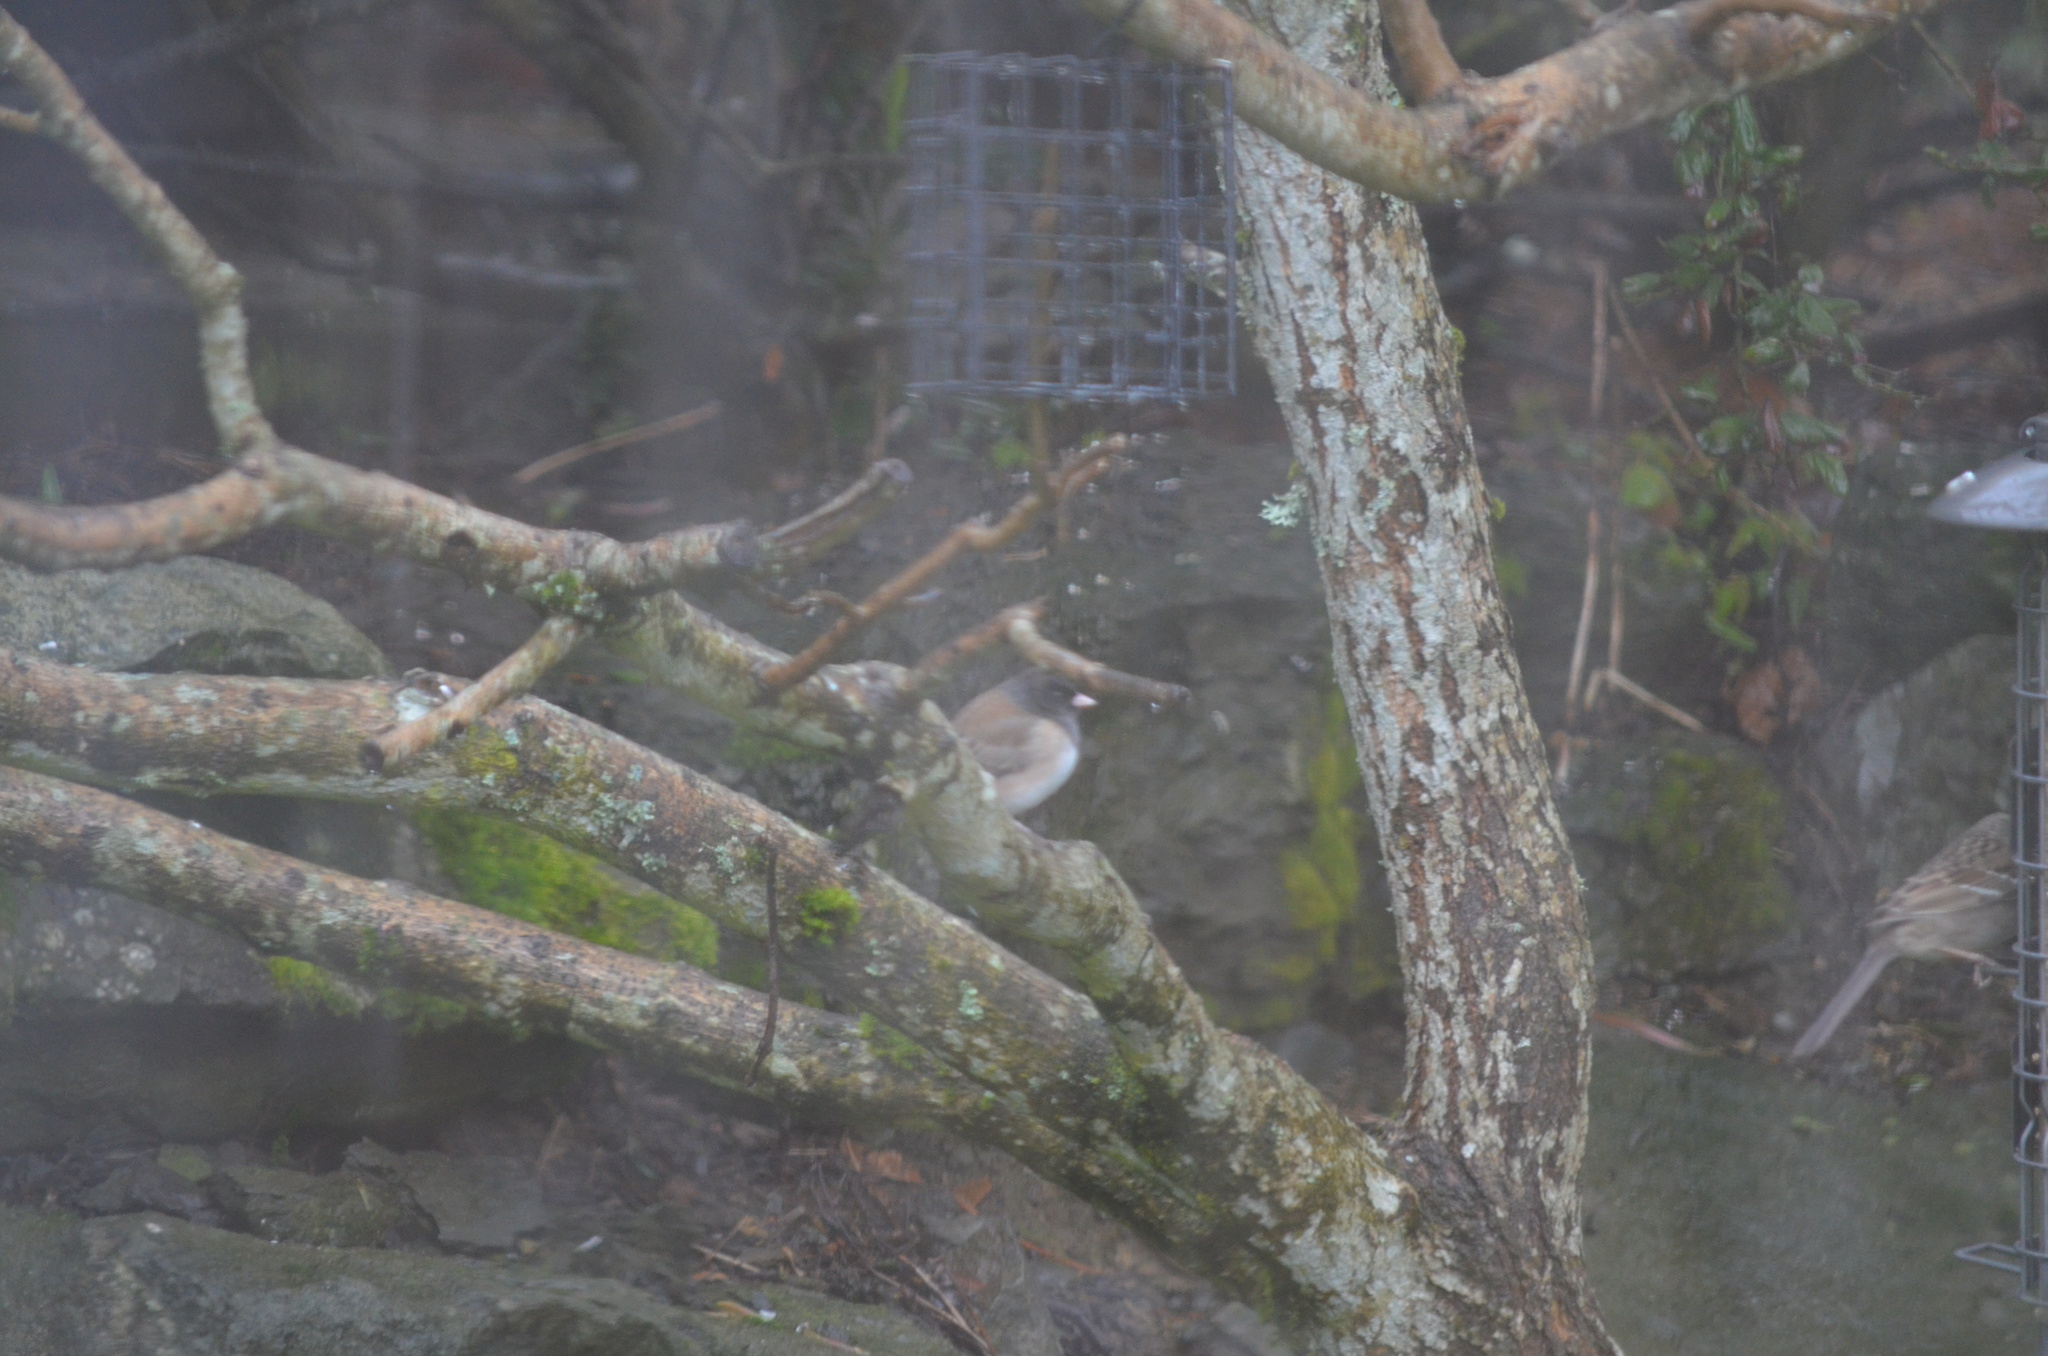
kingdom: Animalia
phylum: Chordata
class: Aves
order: Passeriformes
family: Passerellidae
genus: Junco
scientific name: Junco hyemalis
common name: Dark-eyed junco
